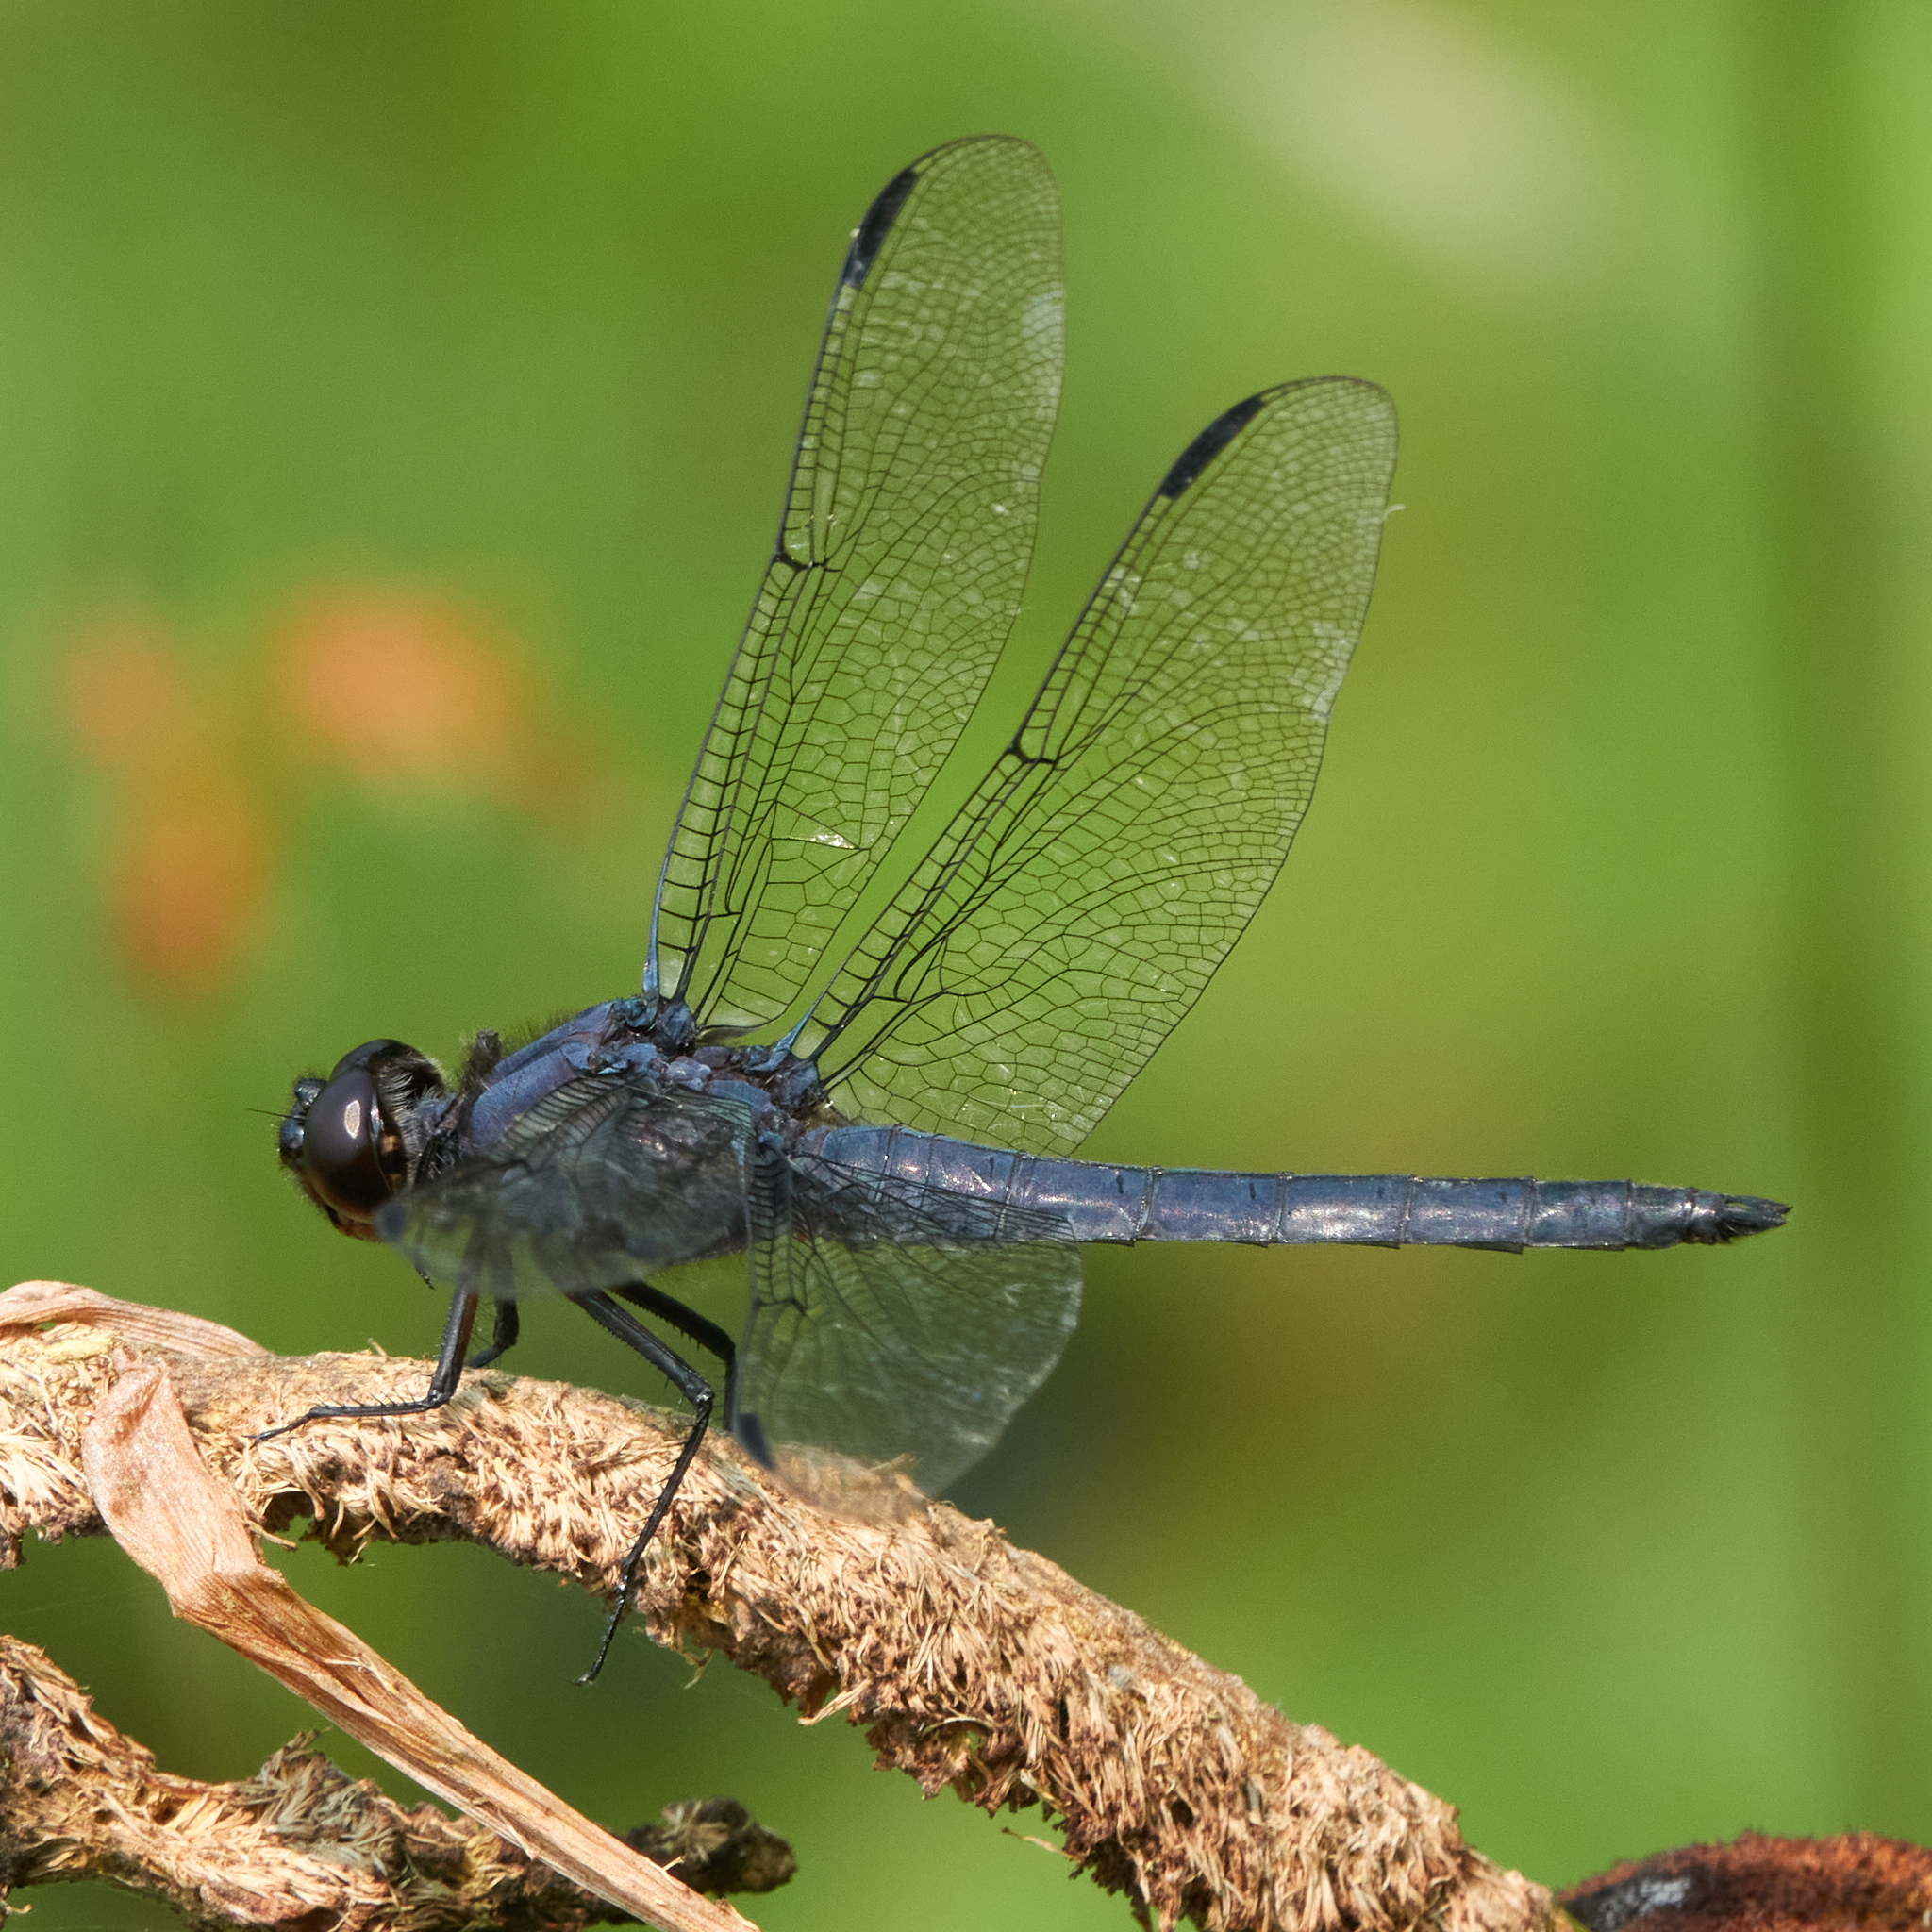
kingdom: Animalia
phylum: Arthropoda
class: Insecta
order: Odonata
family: Libellulidae
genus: Libellula
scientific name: Libellula incesta
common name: Slaty skimmer
